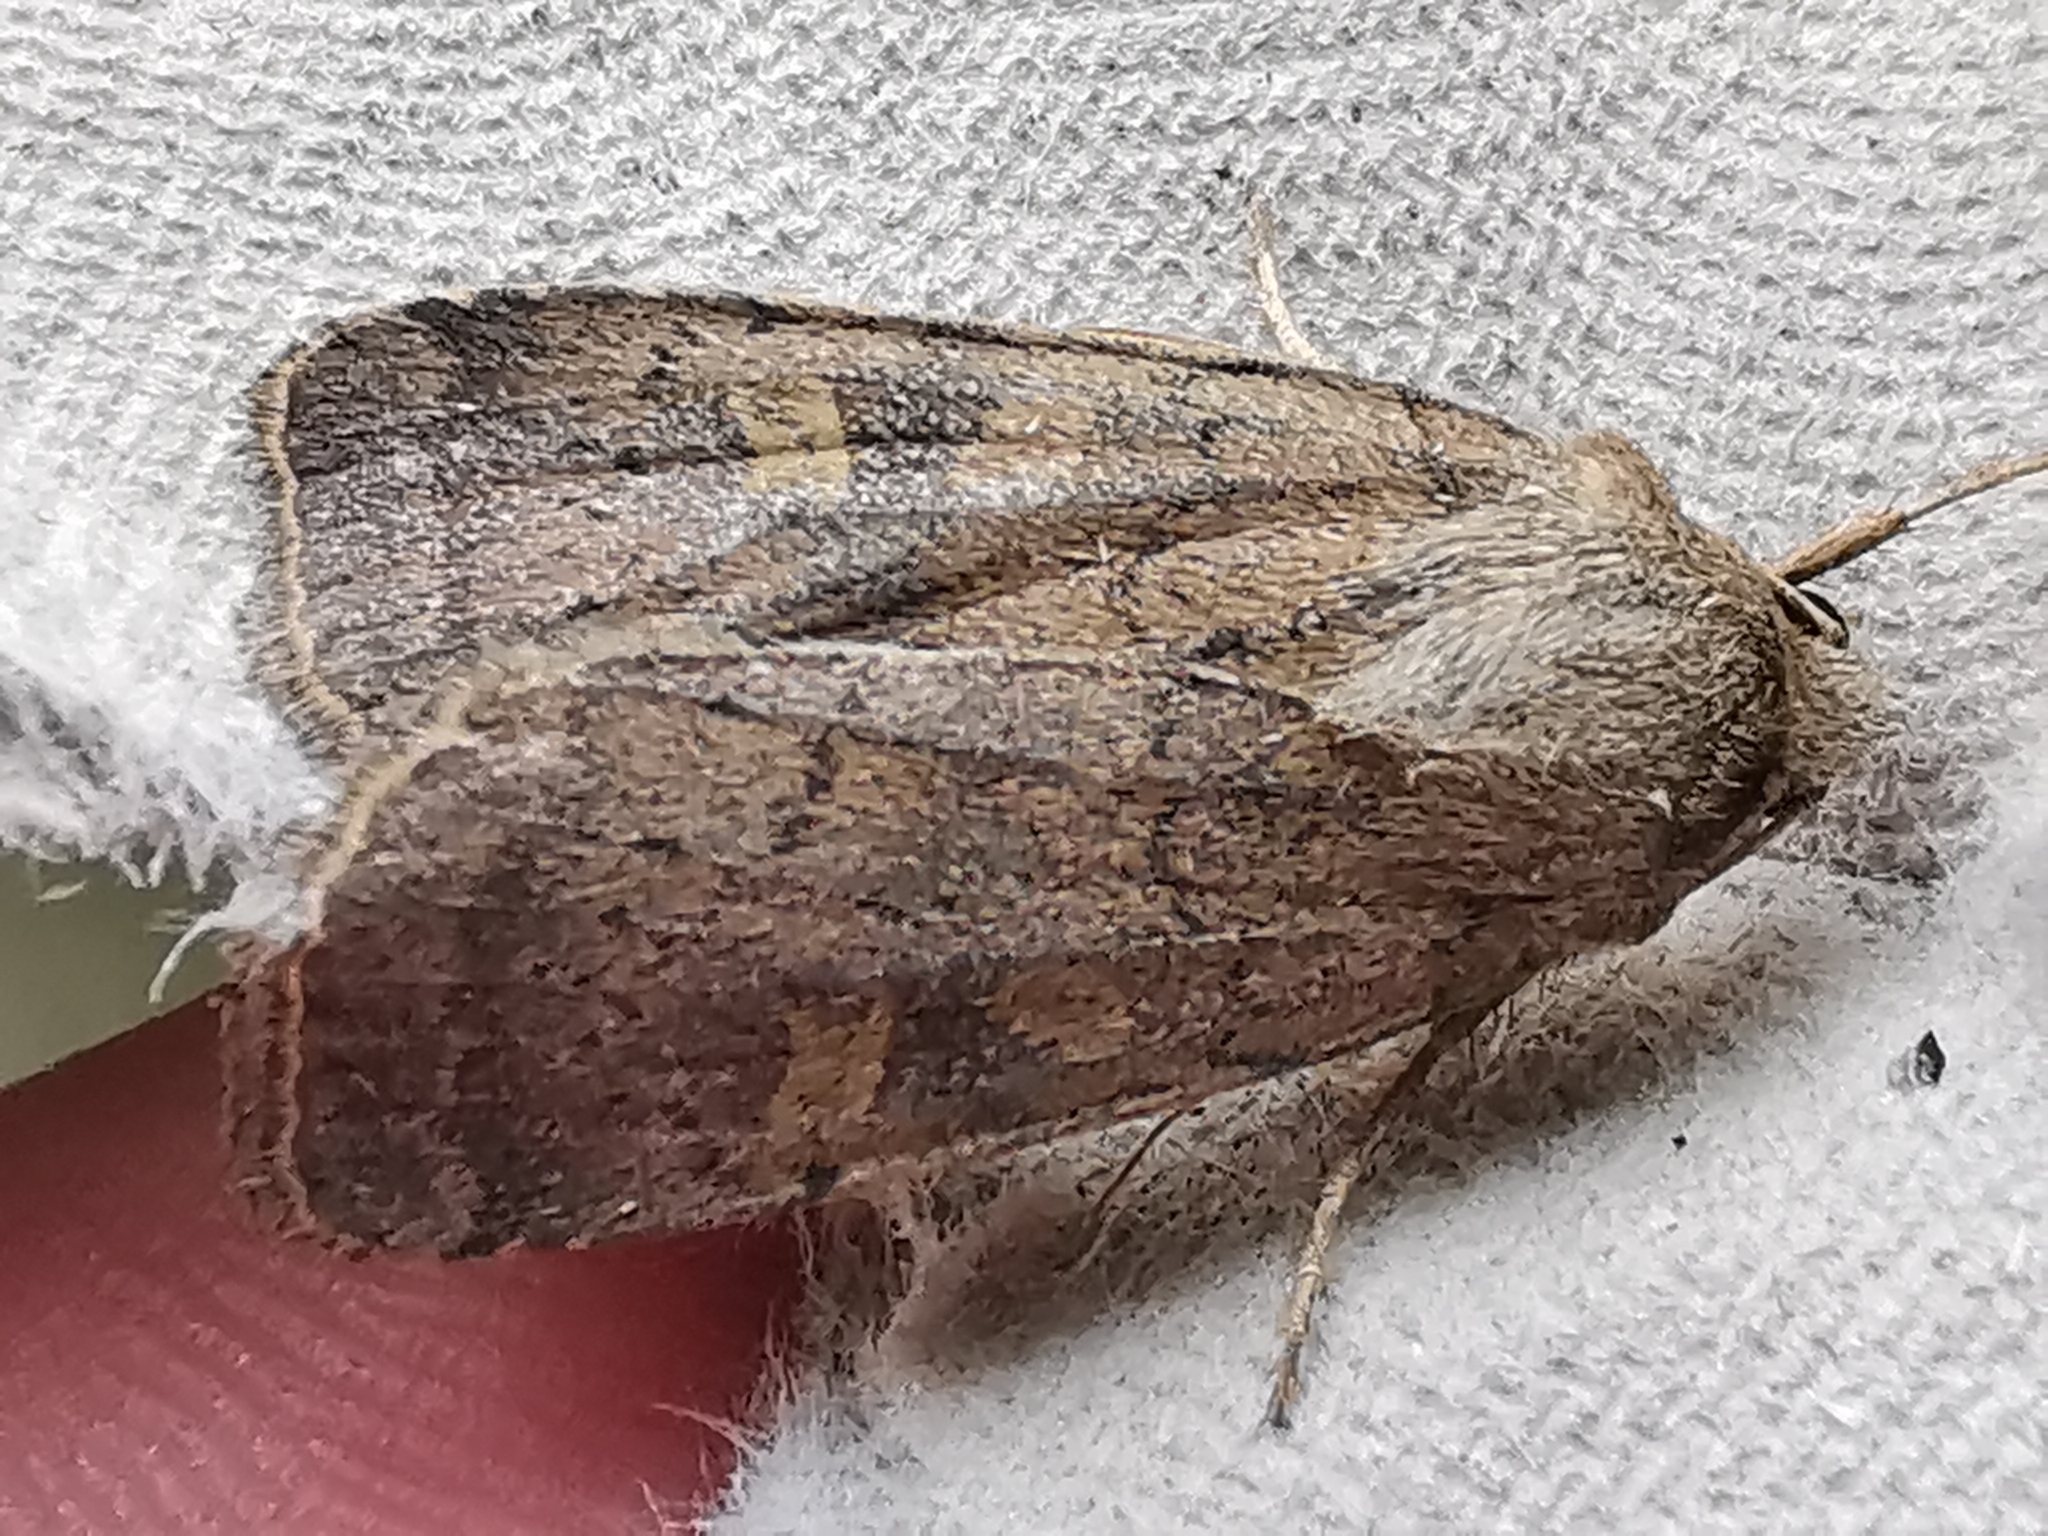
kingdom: Animalia
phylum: Arthropoda
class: Insecta
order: Lepidoptera
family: Noctuidae
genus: Xestia
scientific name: Xestia xanthographa
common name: Square-spot rustic
